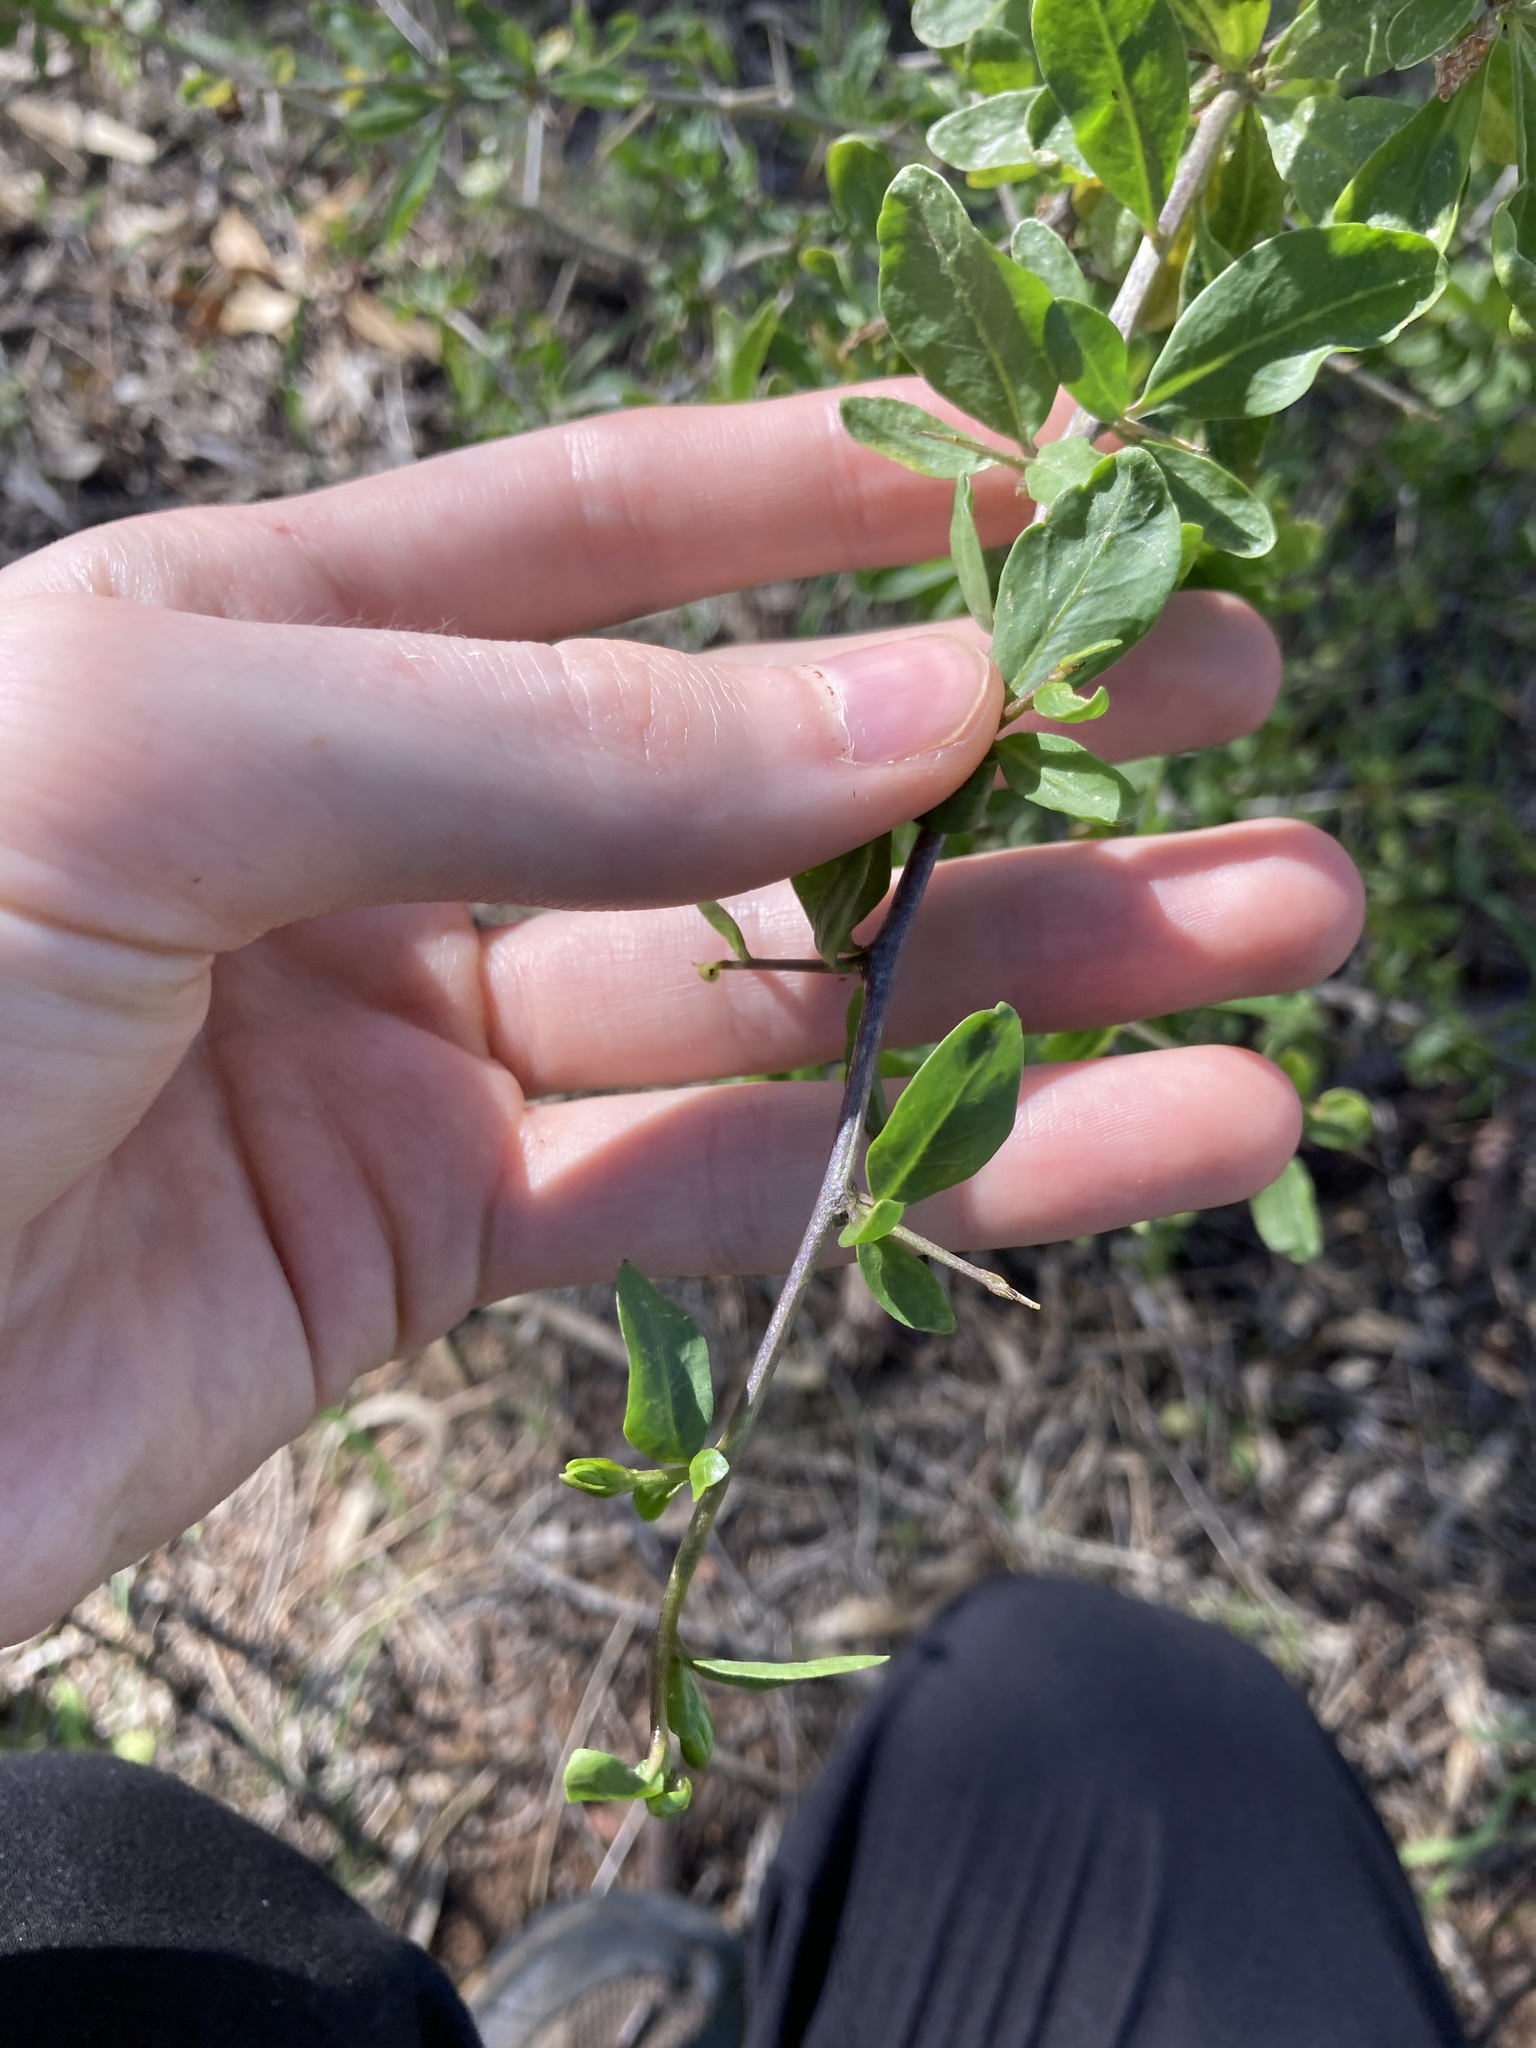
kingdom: Plantae
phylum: Tracheophyta
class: Magnoliopsida
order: Solanales
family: Solanaceae
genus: Lycium
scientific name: Lycium ferocissimum
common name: African boxthorn
